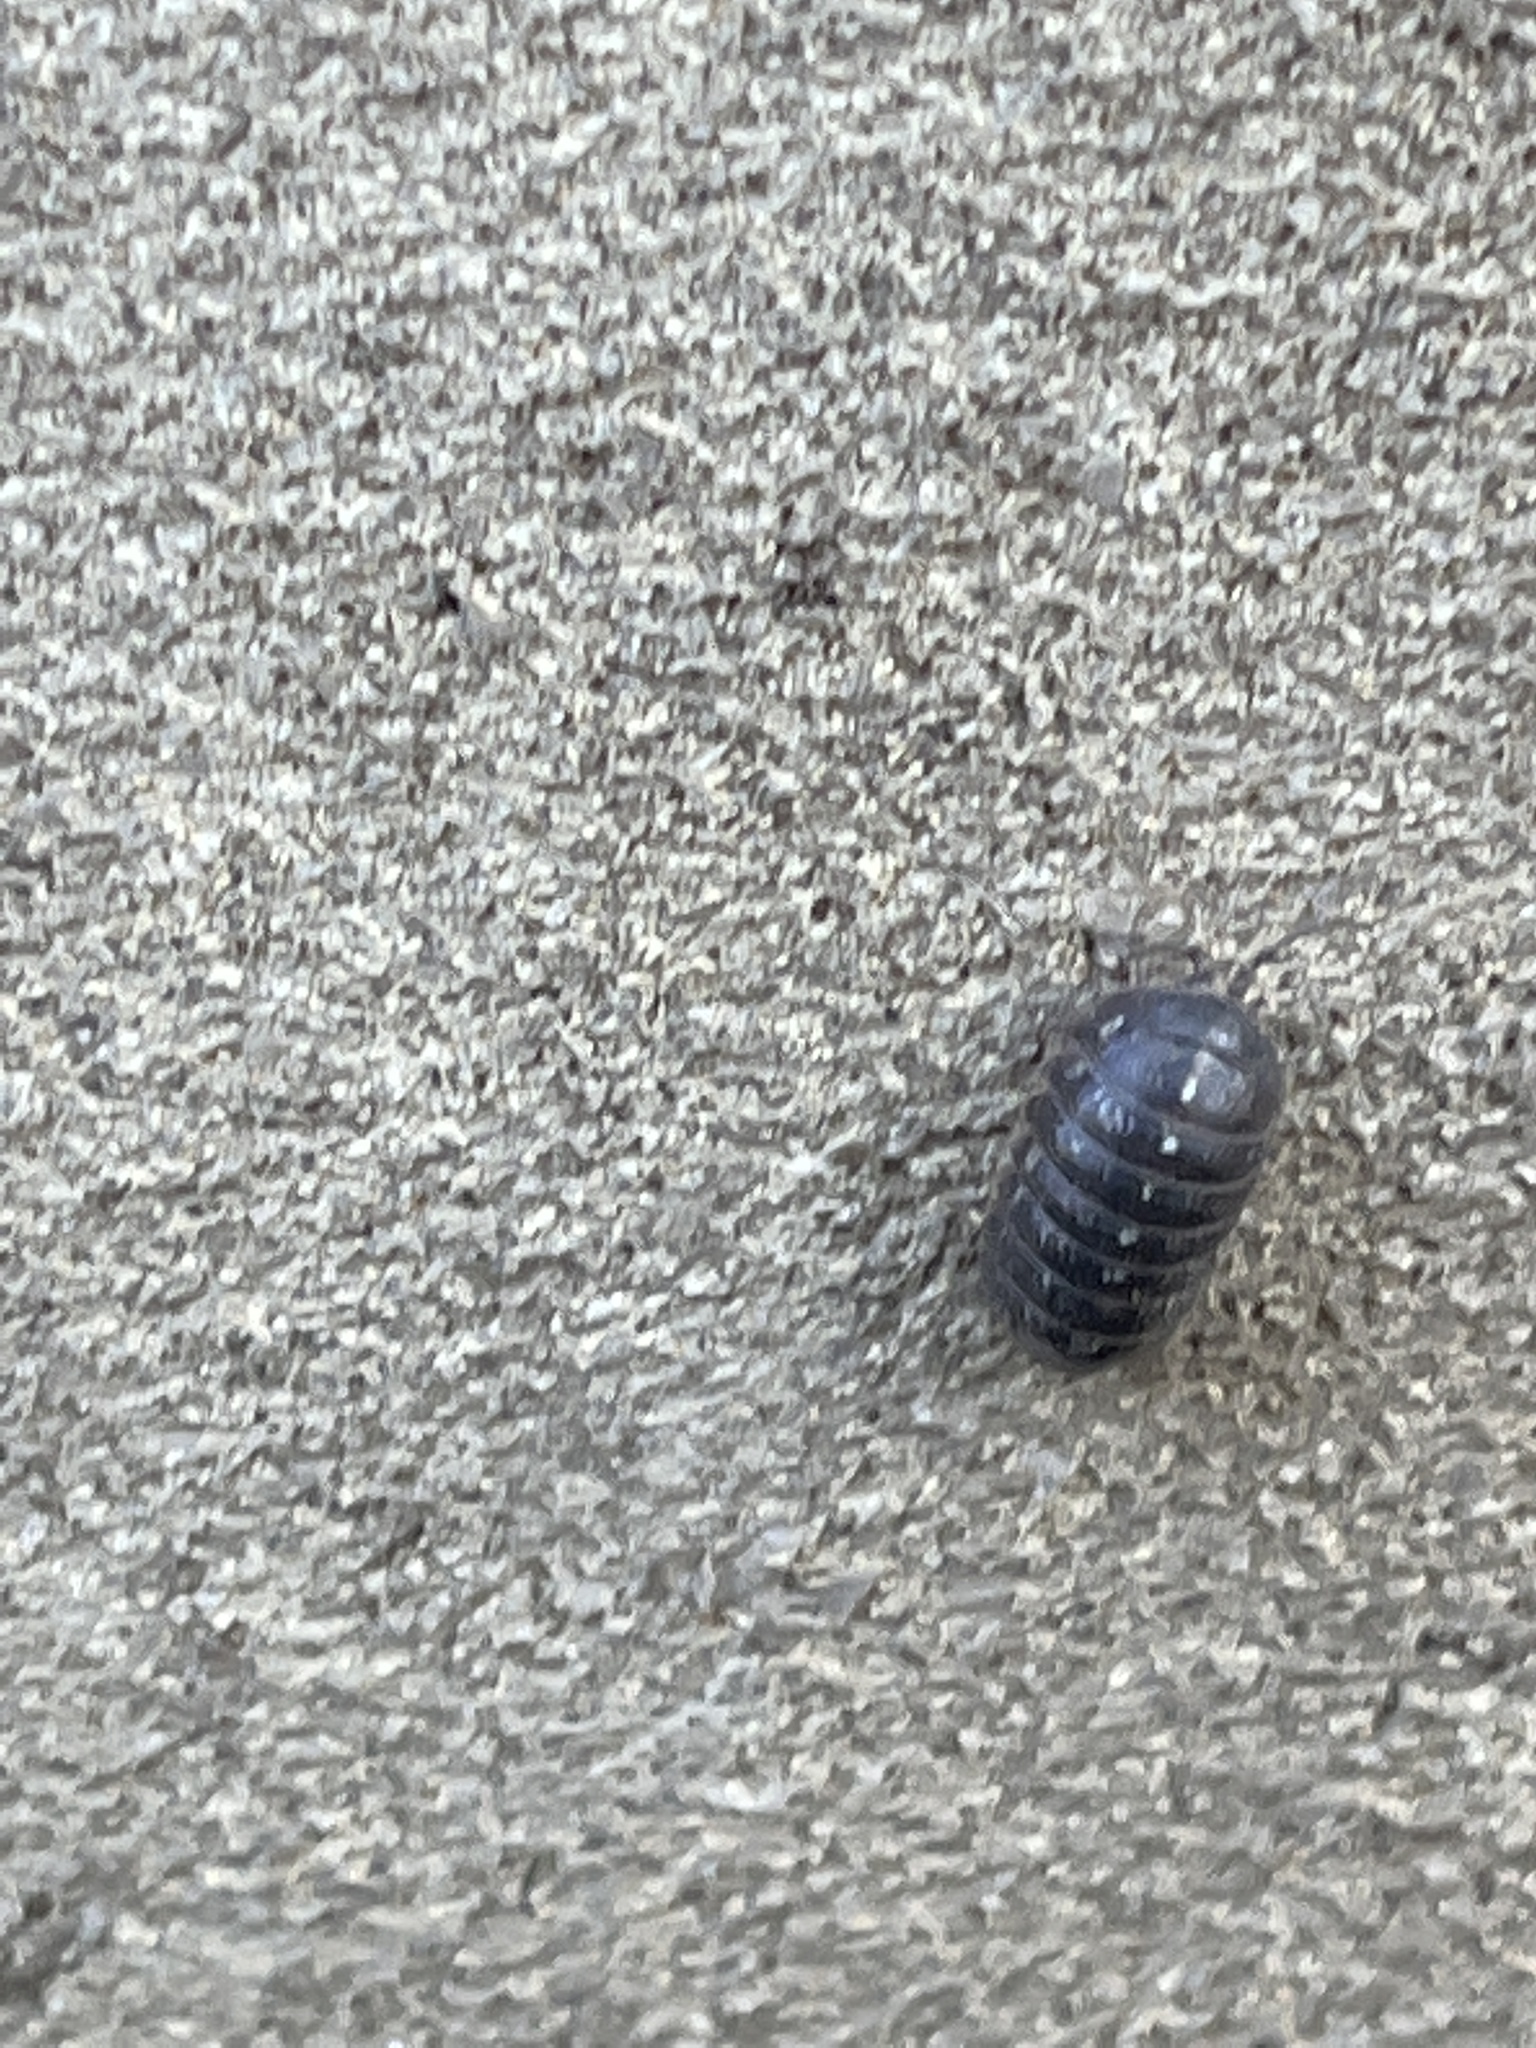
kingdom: Animalia
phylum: Arthropoda
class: Malacostraca
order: Isopoda
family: Armadillidiidae
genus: Armadillidium
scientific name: Armadillidium vulgare
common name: Common pill woodlouse
